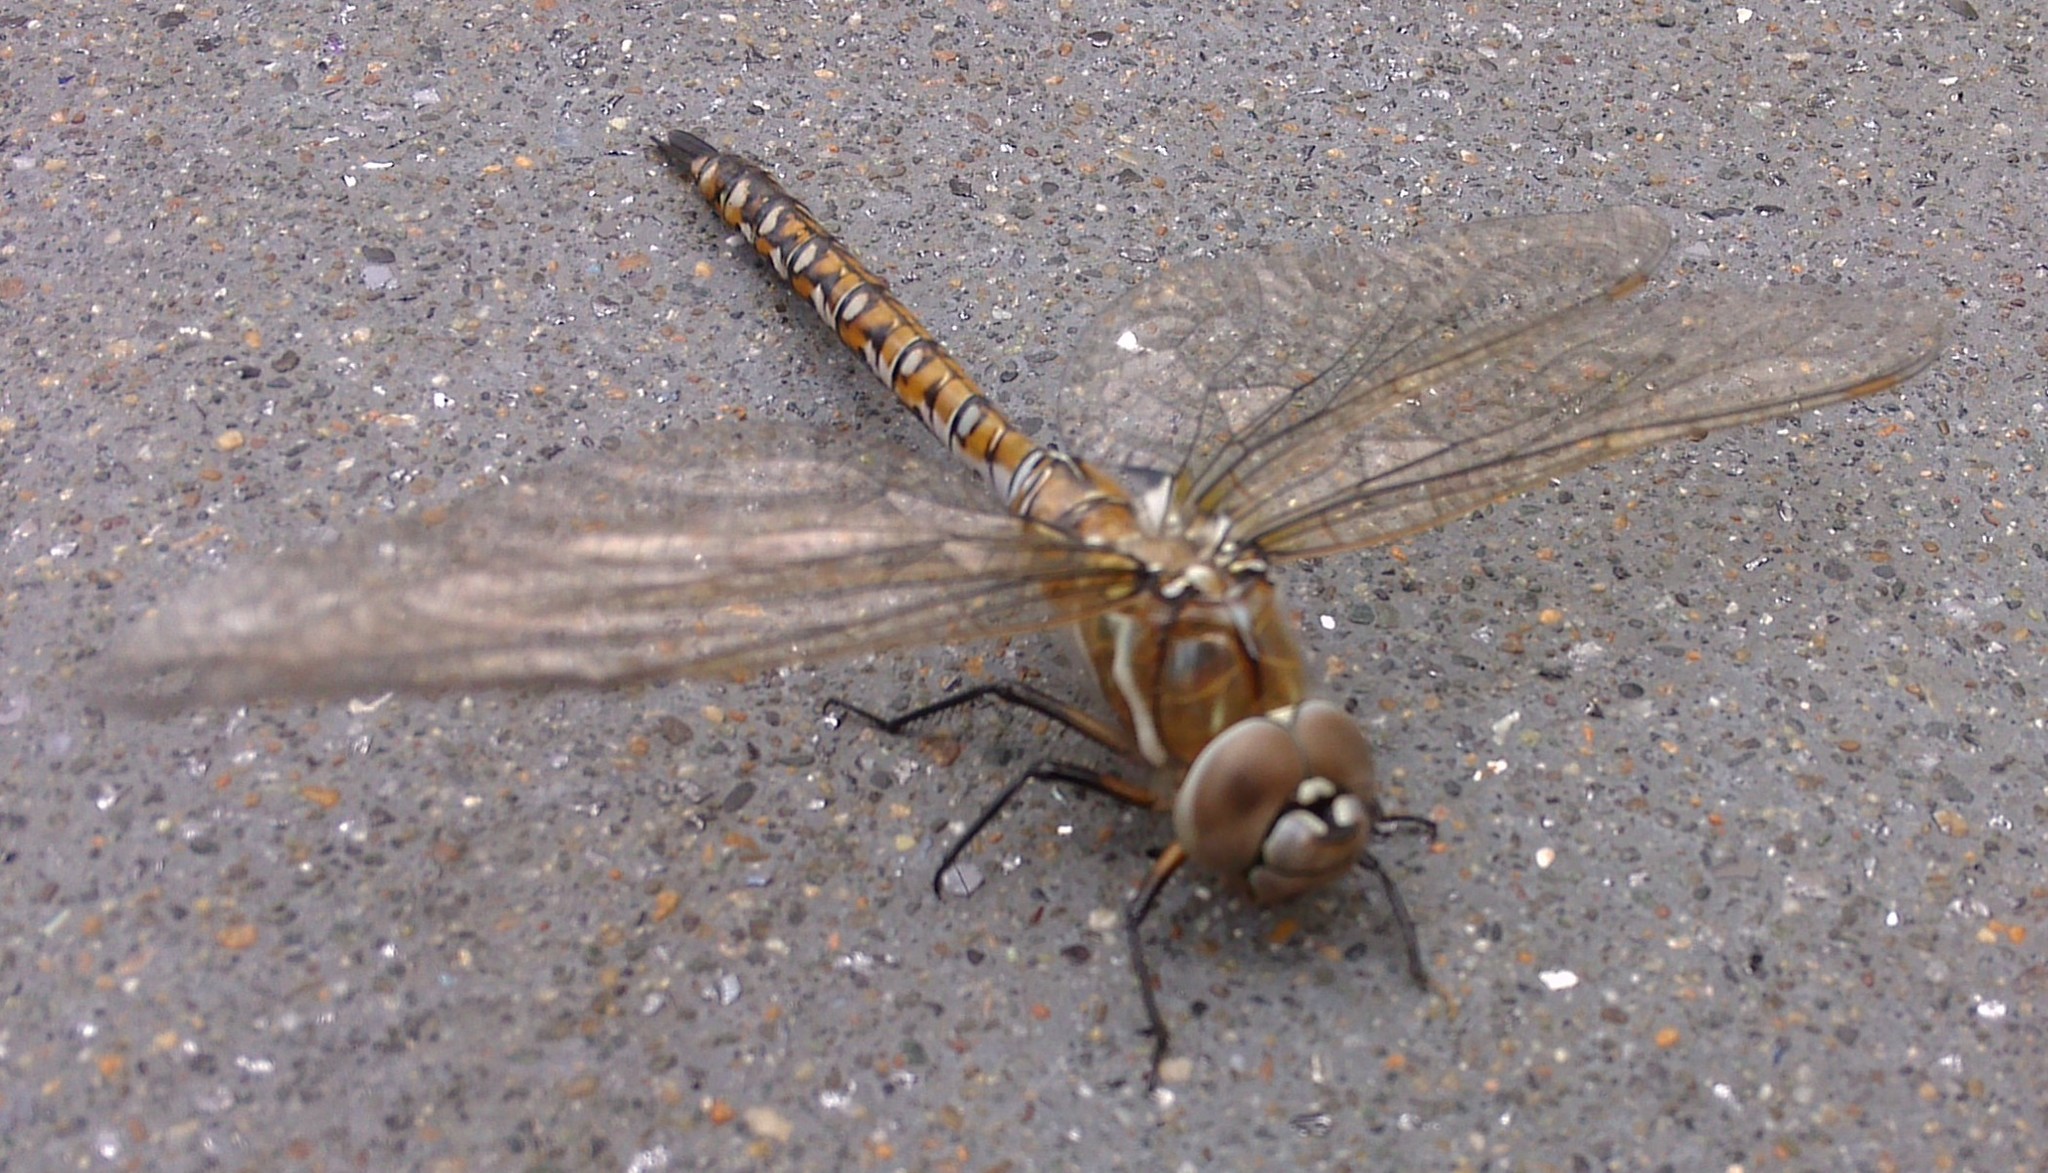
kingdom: Animalia
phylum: Arthropoda
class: Insecta
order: Odonata
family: Aeshnidae
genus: Rhionaeschna
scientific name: Rhionaeschna californica
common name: California darner
